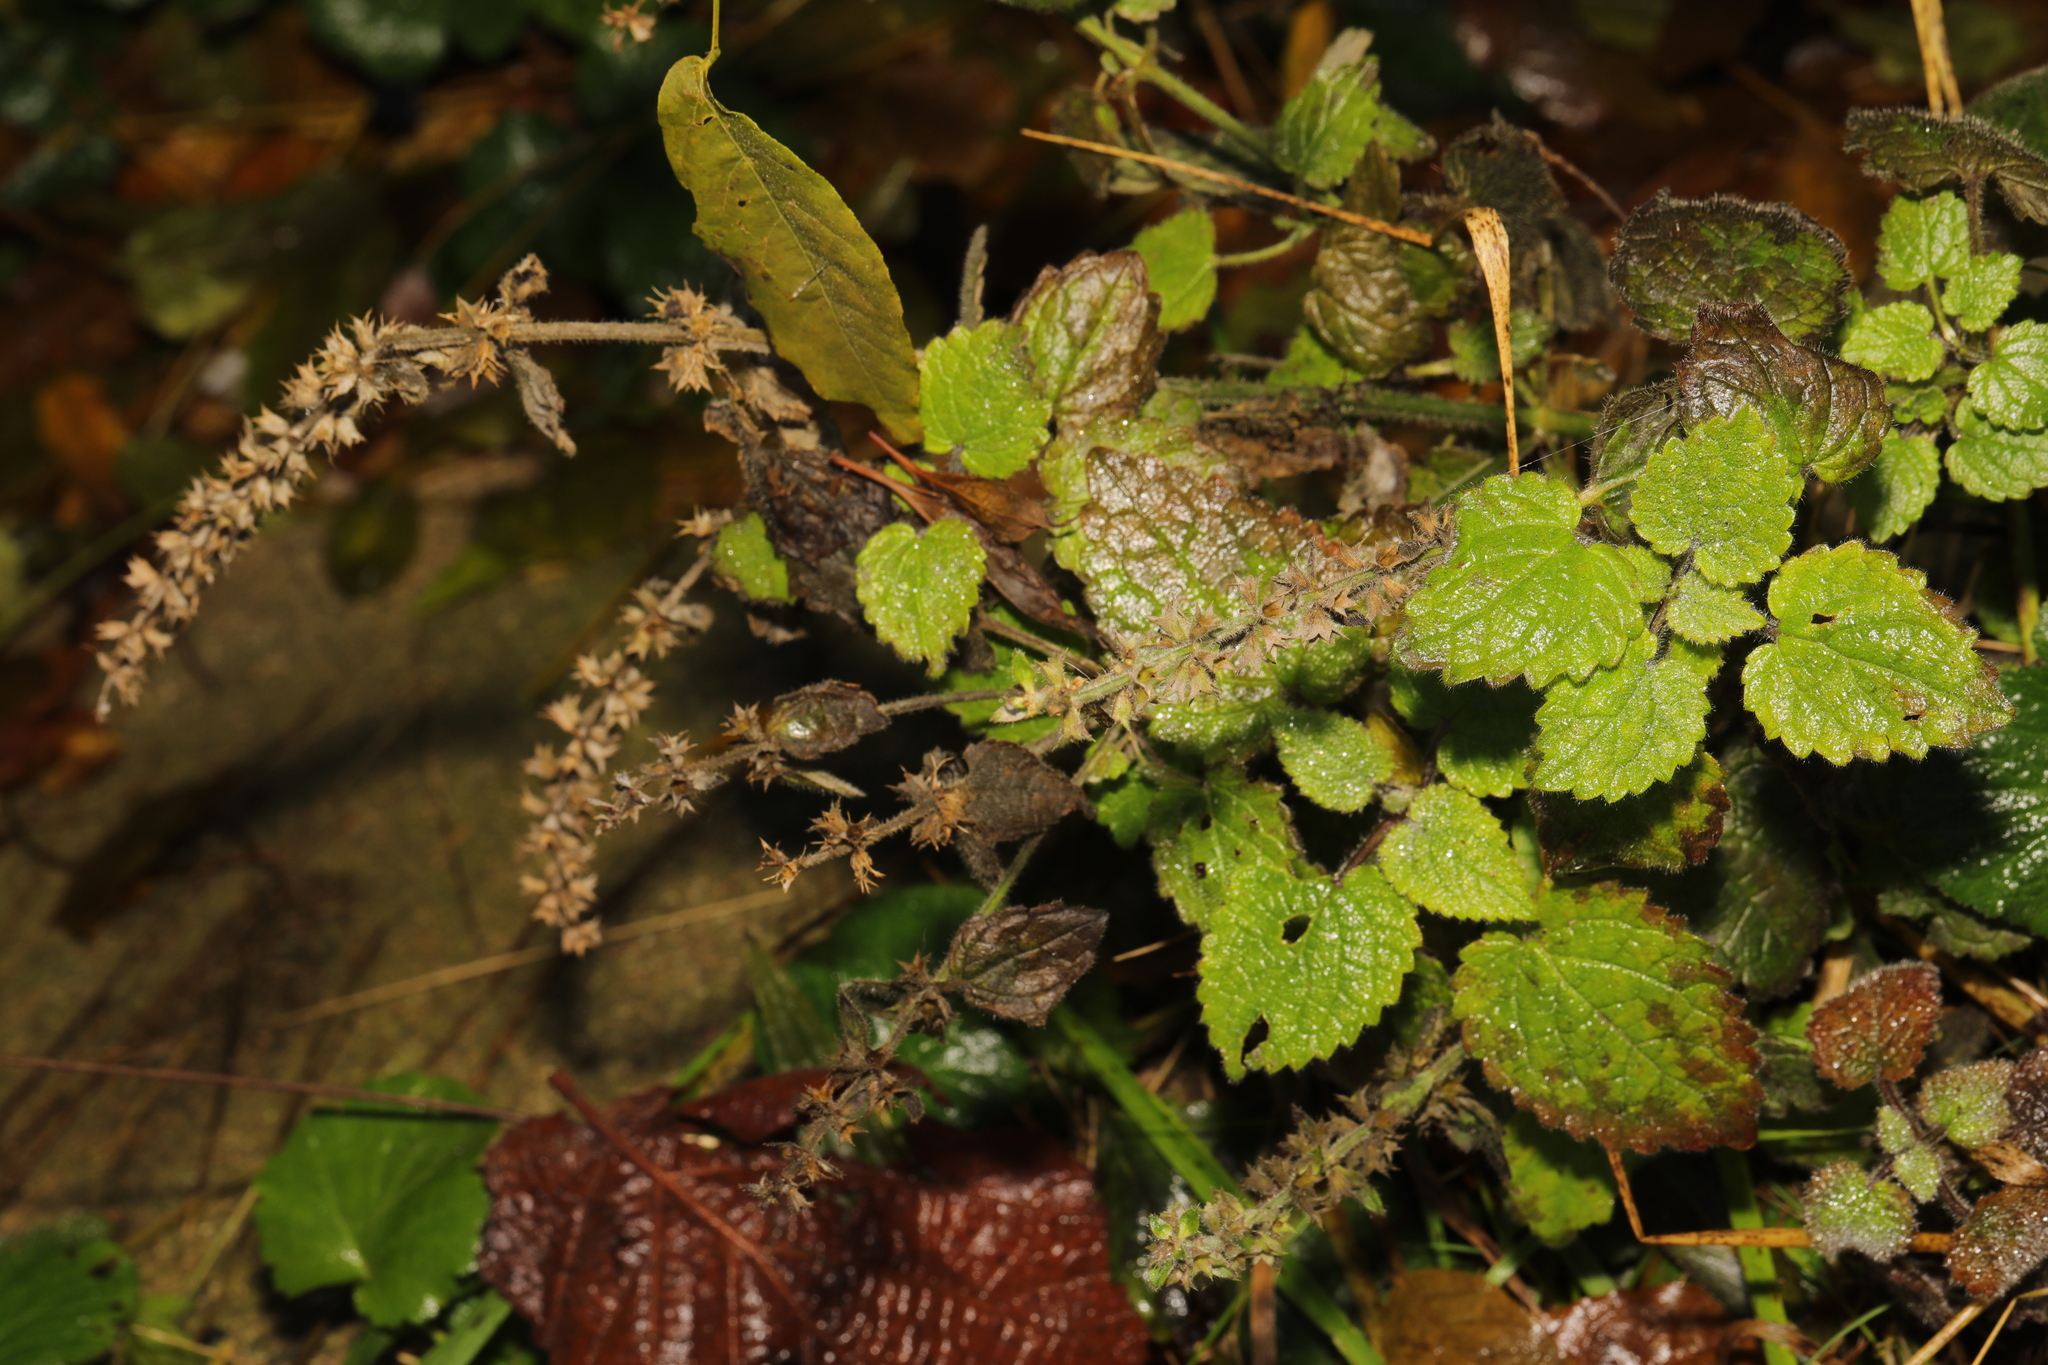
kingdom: Plantae
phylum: Tracheophyta
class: Magnoliopsida
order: Lamiales
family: Lamiaceae
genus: Stachys
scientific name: Stachys sylvatica
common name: Hedge woundwort
